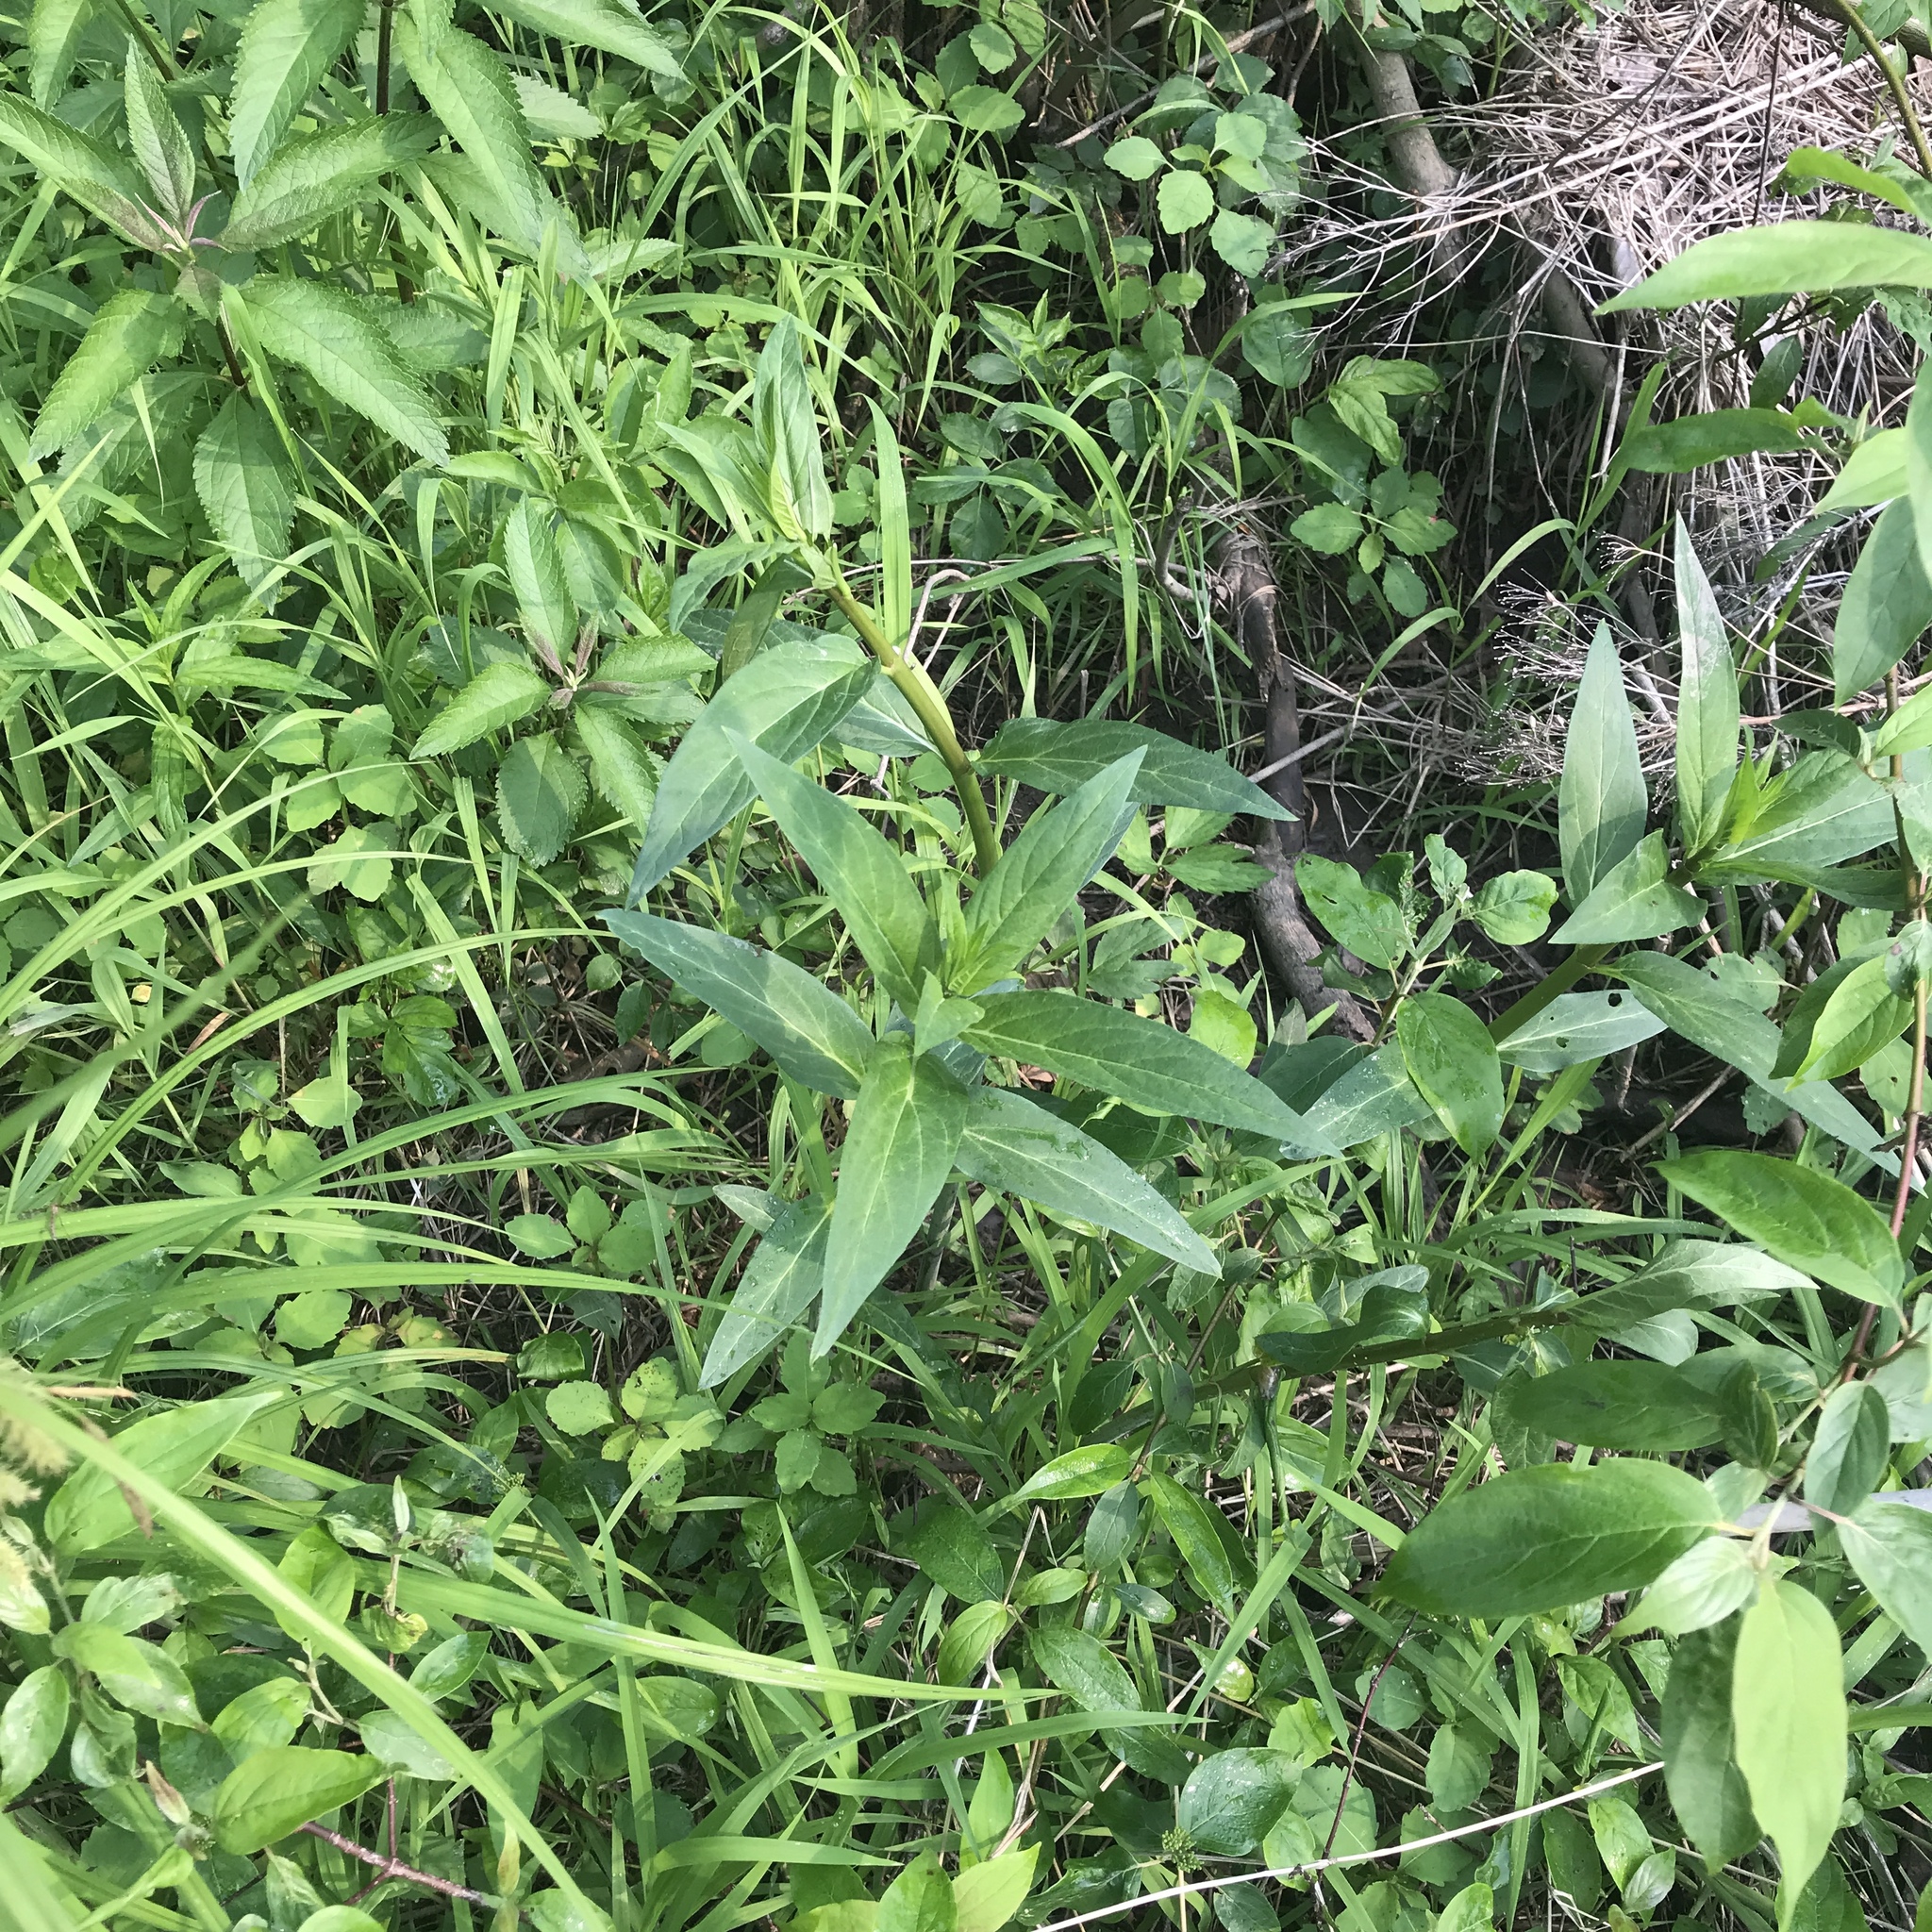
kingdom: Plantae
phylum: Tracheophyta
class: Magnoliopsida
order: Gentianales
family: Apocynaceae
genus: Asclepias
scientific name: Asclepias incarnata
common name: Swamp milkweed
